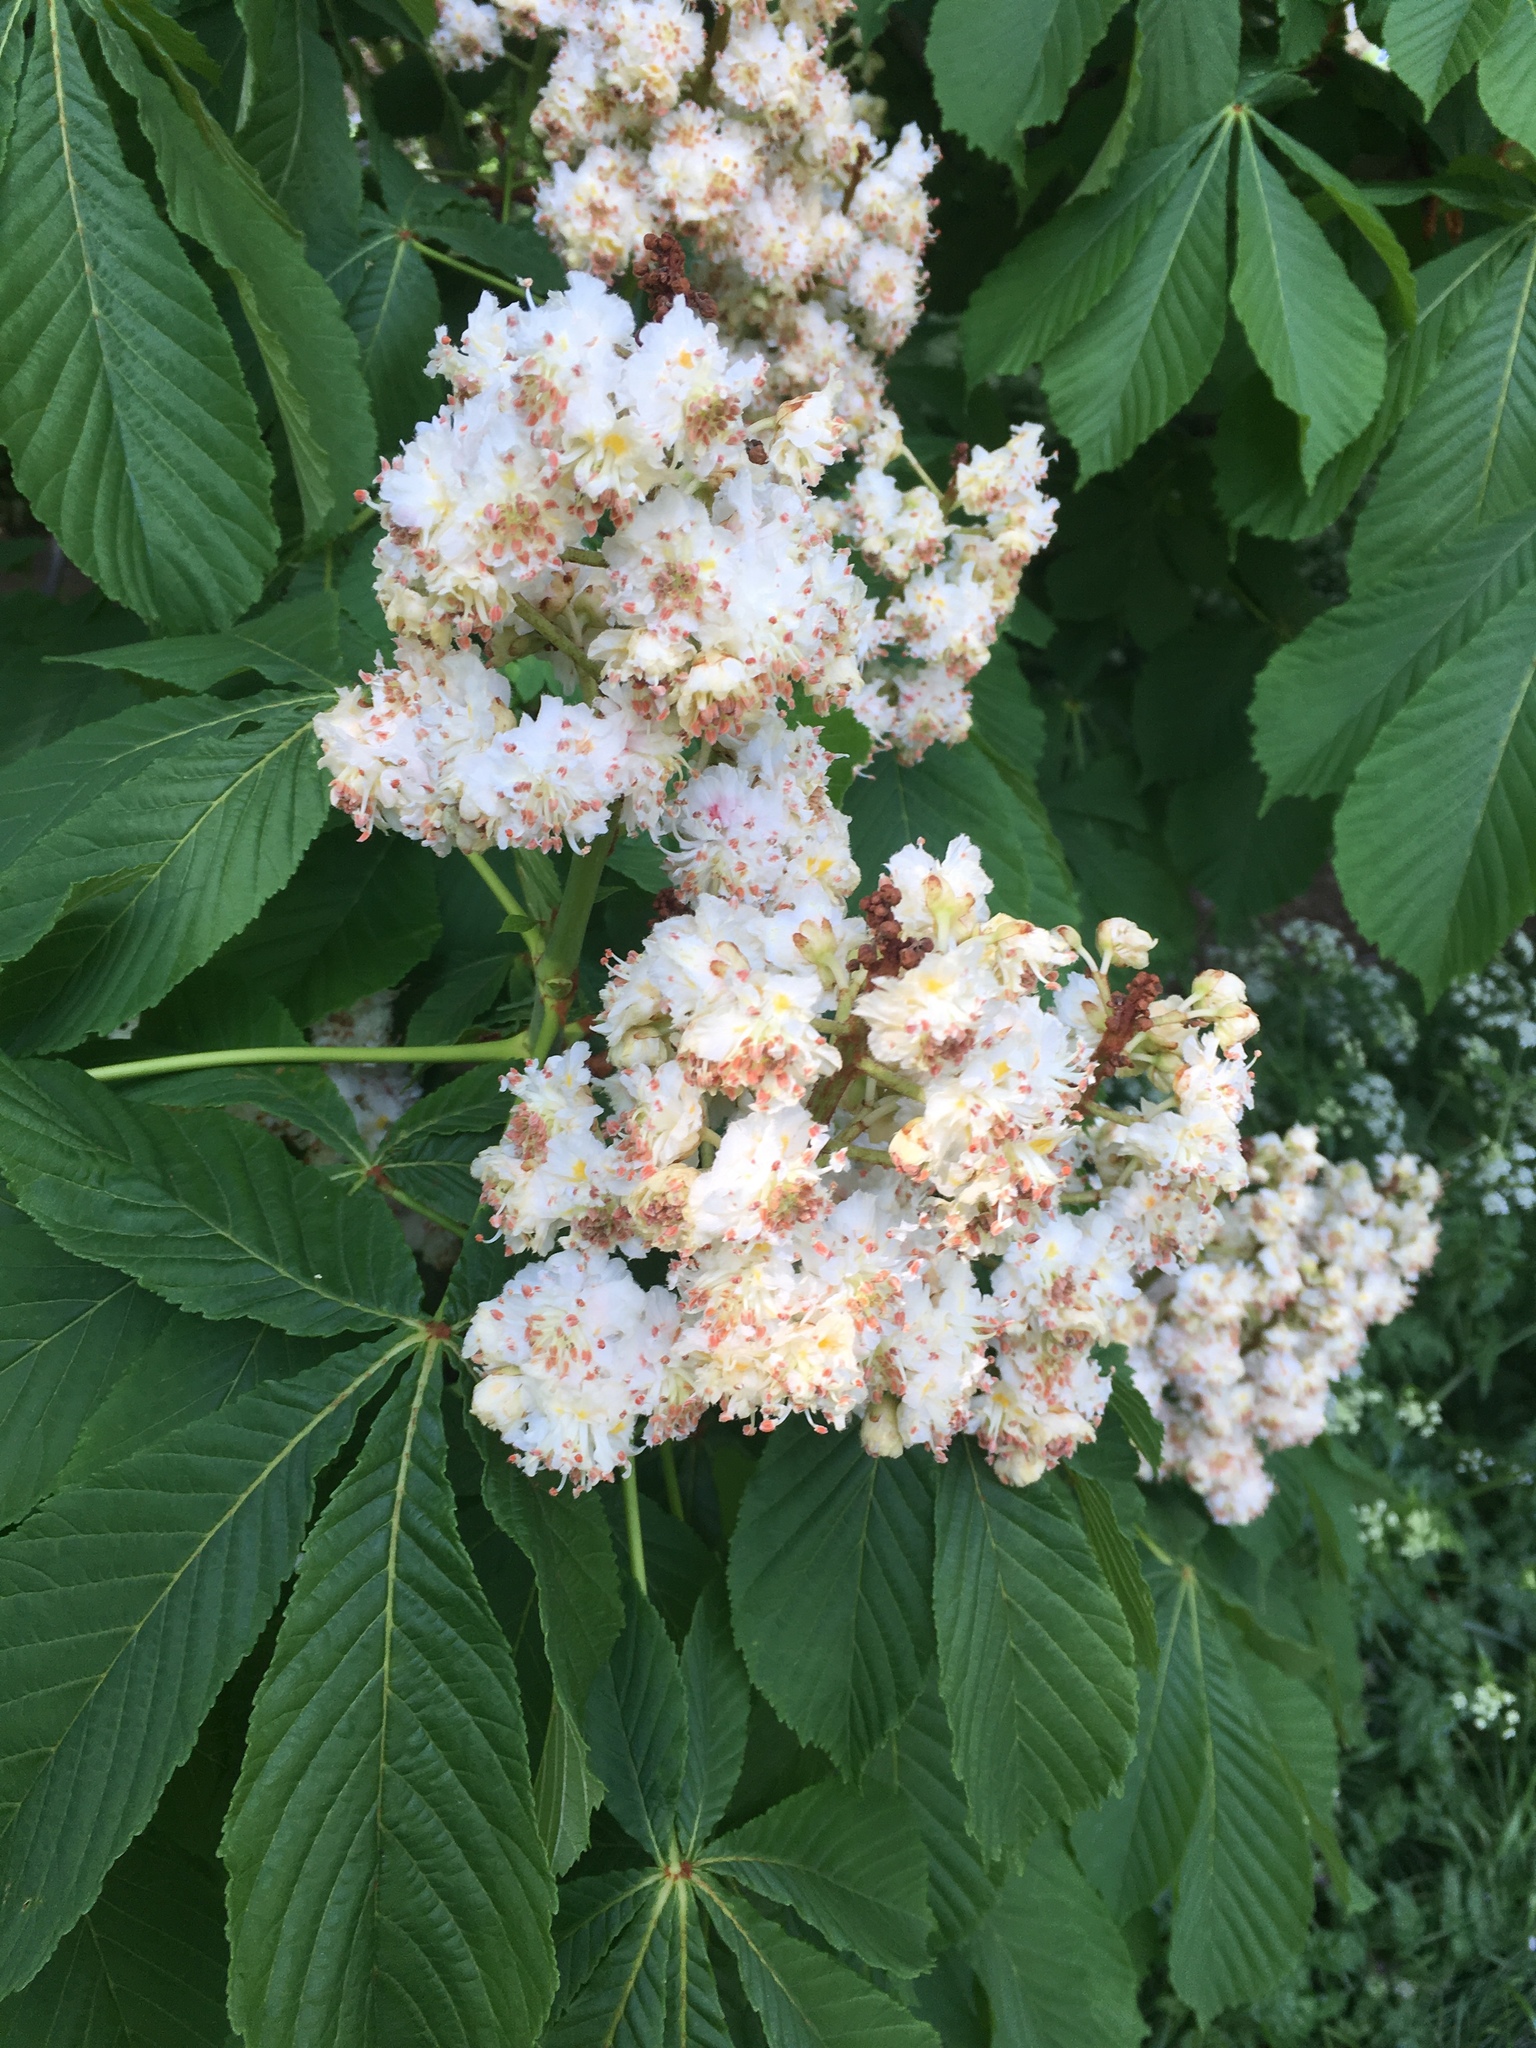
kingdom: Plantae
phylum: Tracheophyta
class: Magnoliopsida
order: Sapindales
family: Sapindaceae
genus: Aesculus
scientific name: Aesculus hippocastanum
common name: Horse-chestnut
